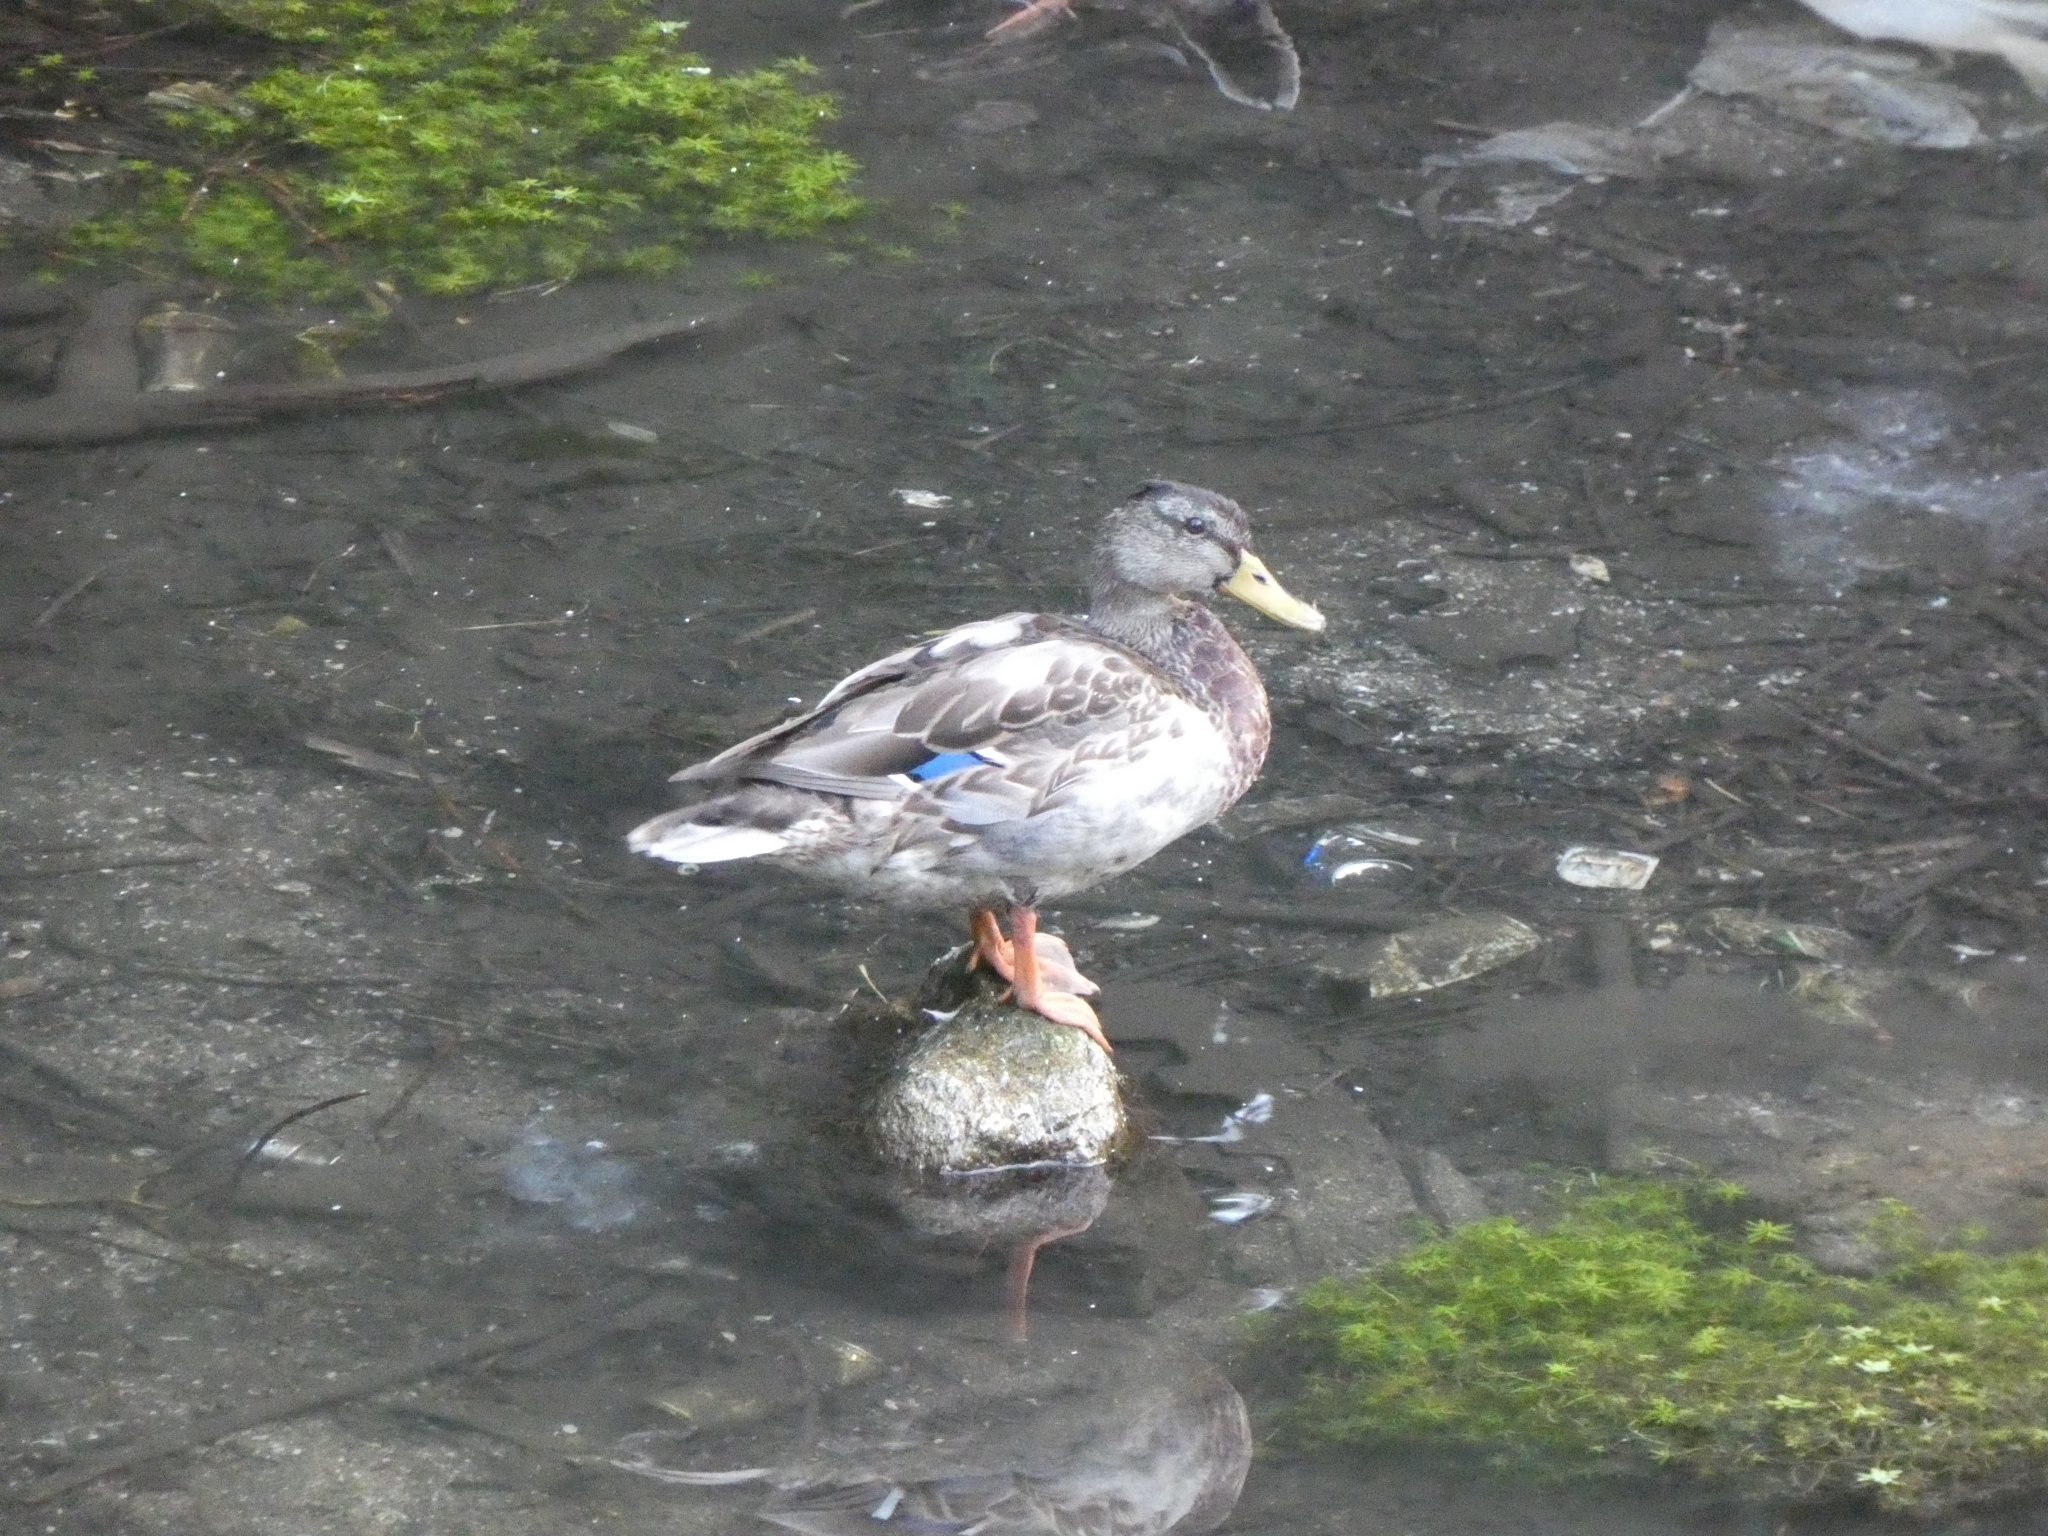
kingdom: Animalia
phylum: Chordata
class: Aves
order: Anseriformes
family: Anatidae
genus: Anas
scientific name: Anas platyrhynchos
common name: Mallard
